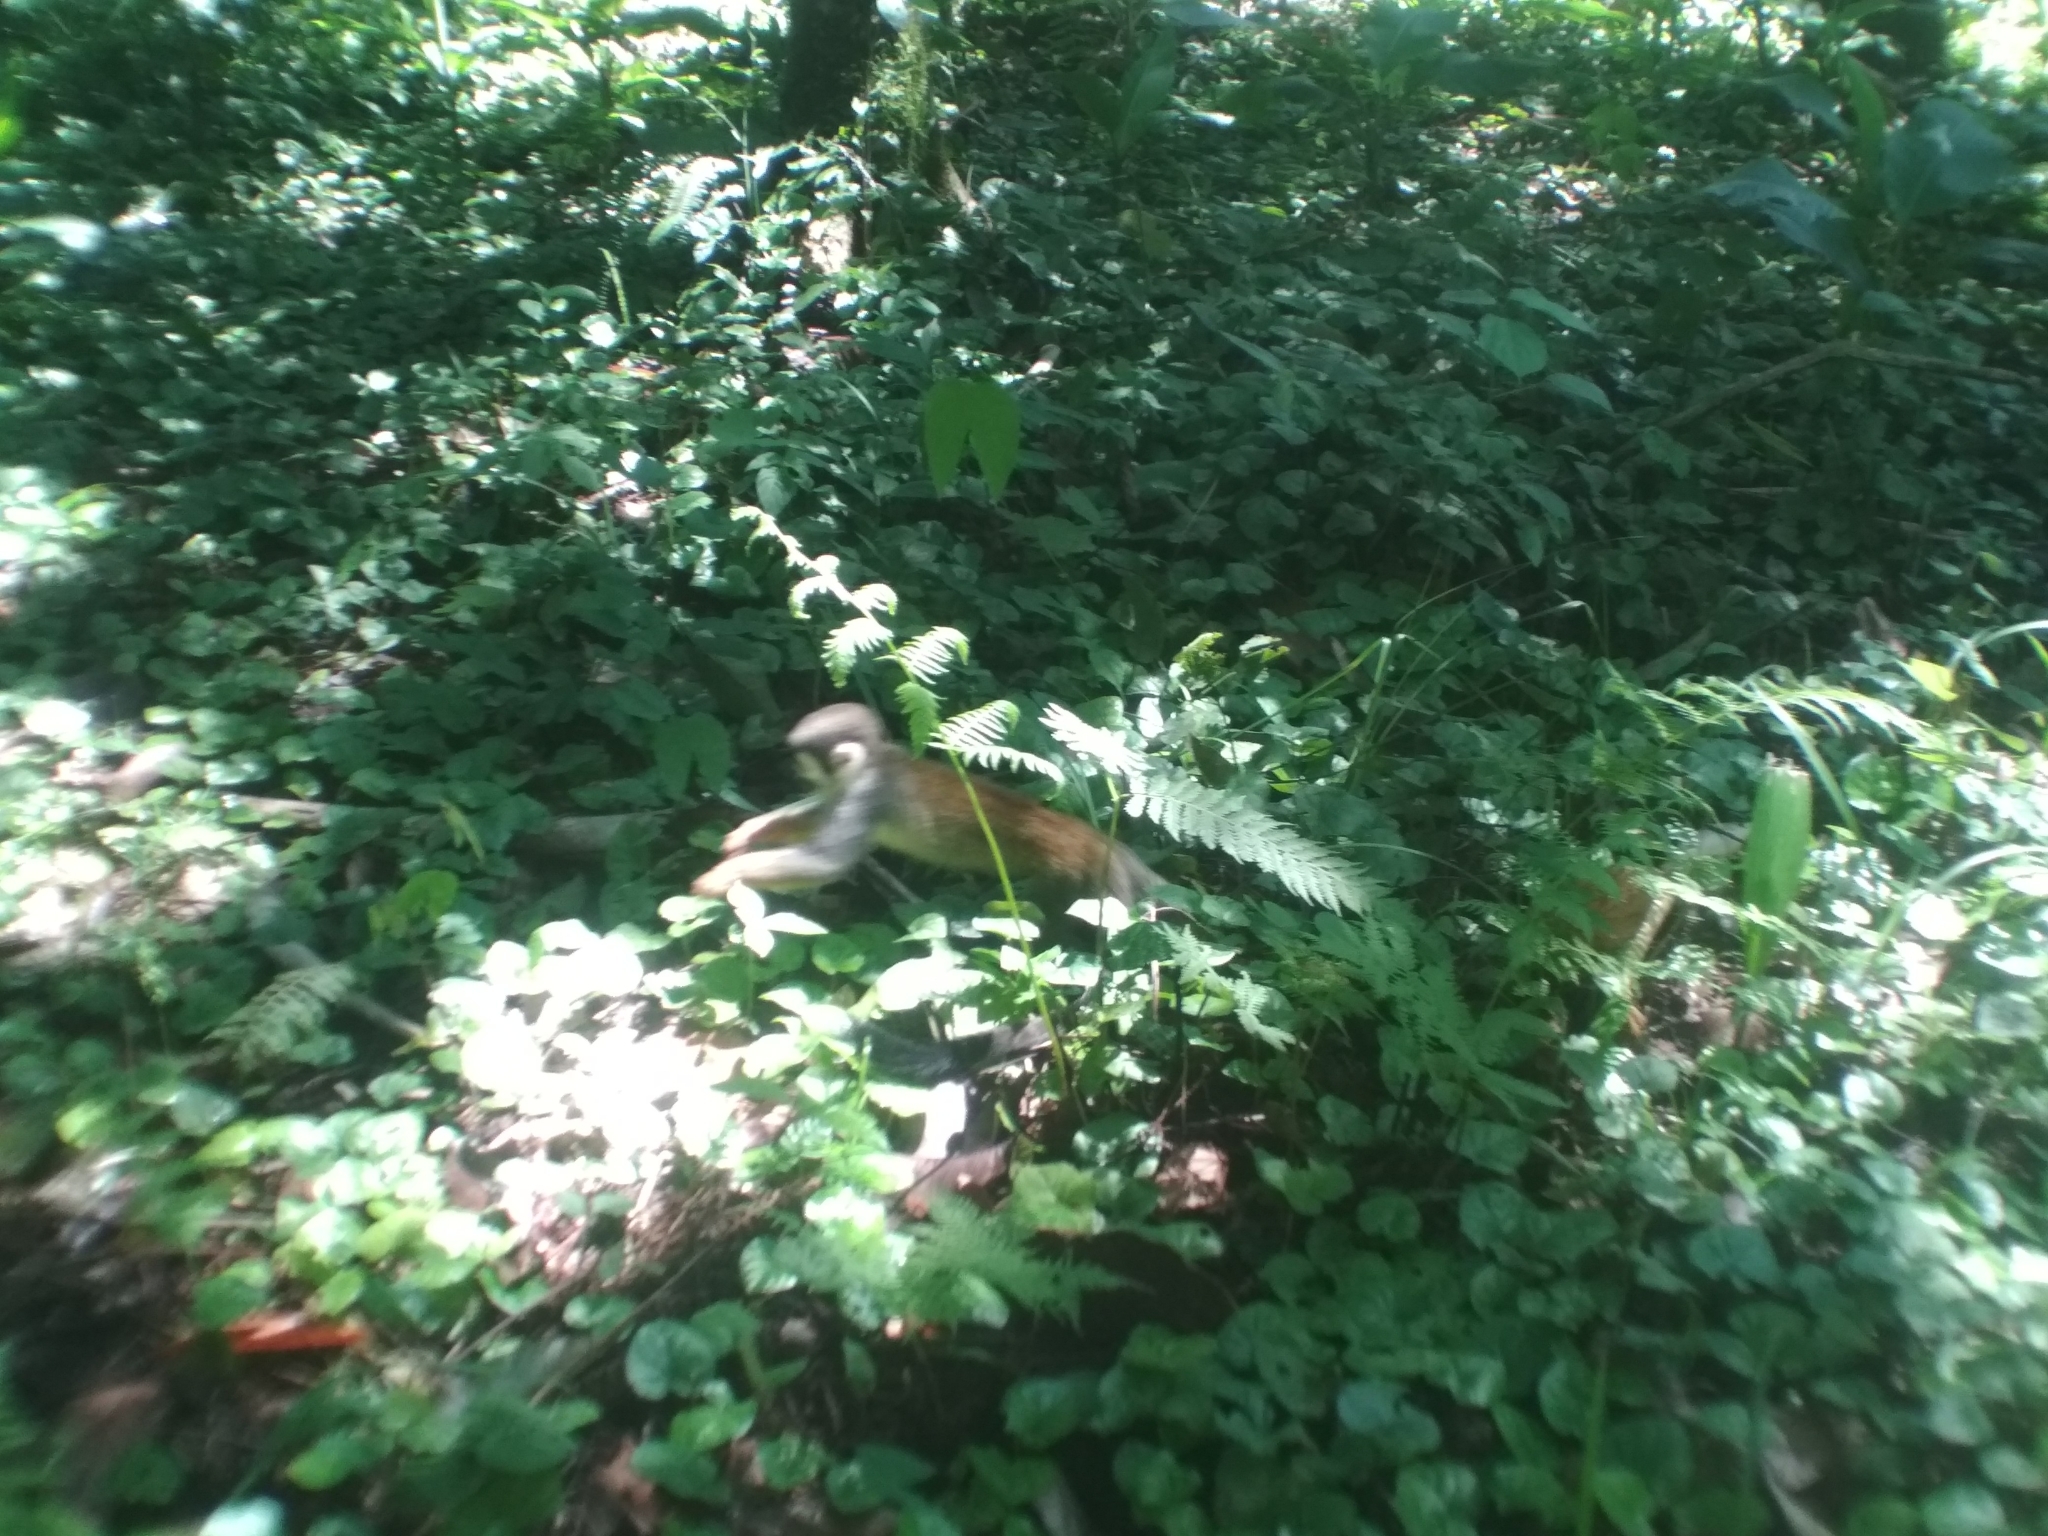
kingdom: Animalia
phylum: Chordata
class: Mammalia
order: Primates
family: Cebidae
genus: Saimiri
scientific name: Saimiri cassiquiarensis
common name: Humboldt’s squirrel monkey
